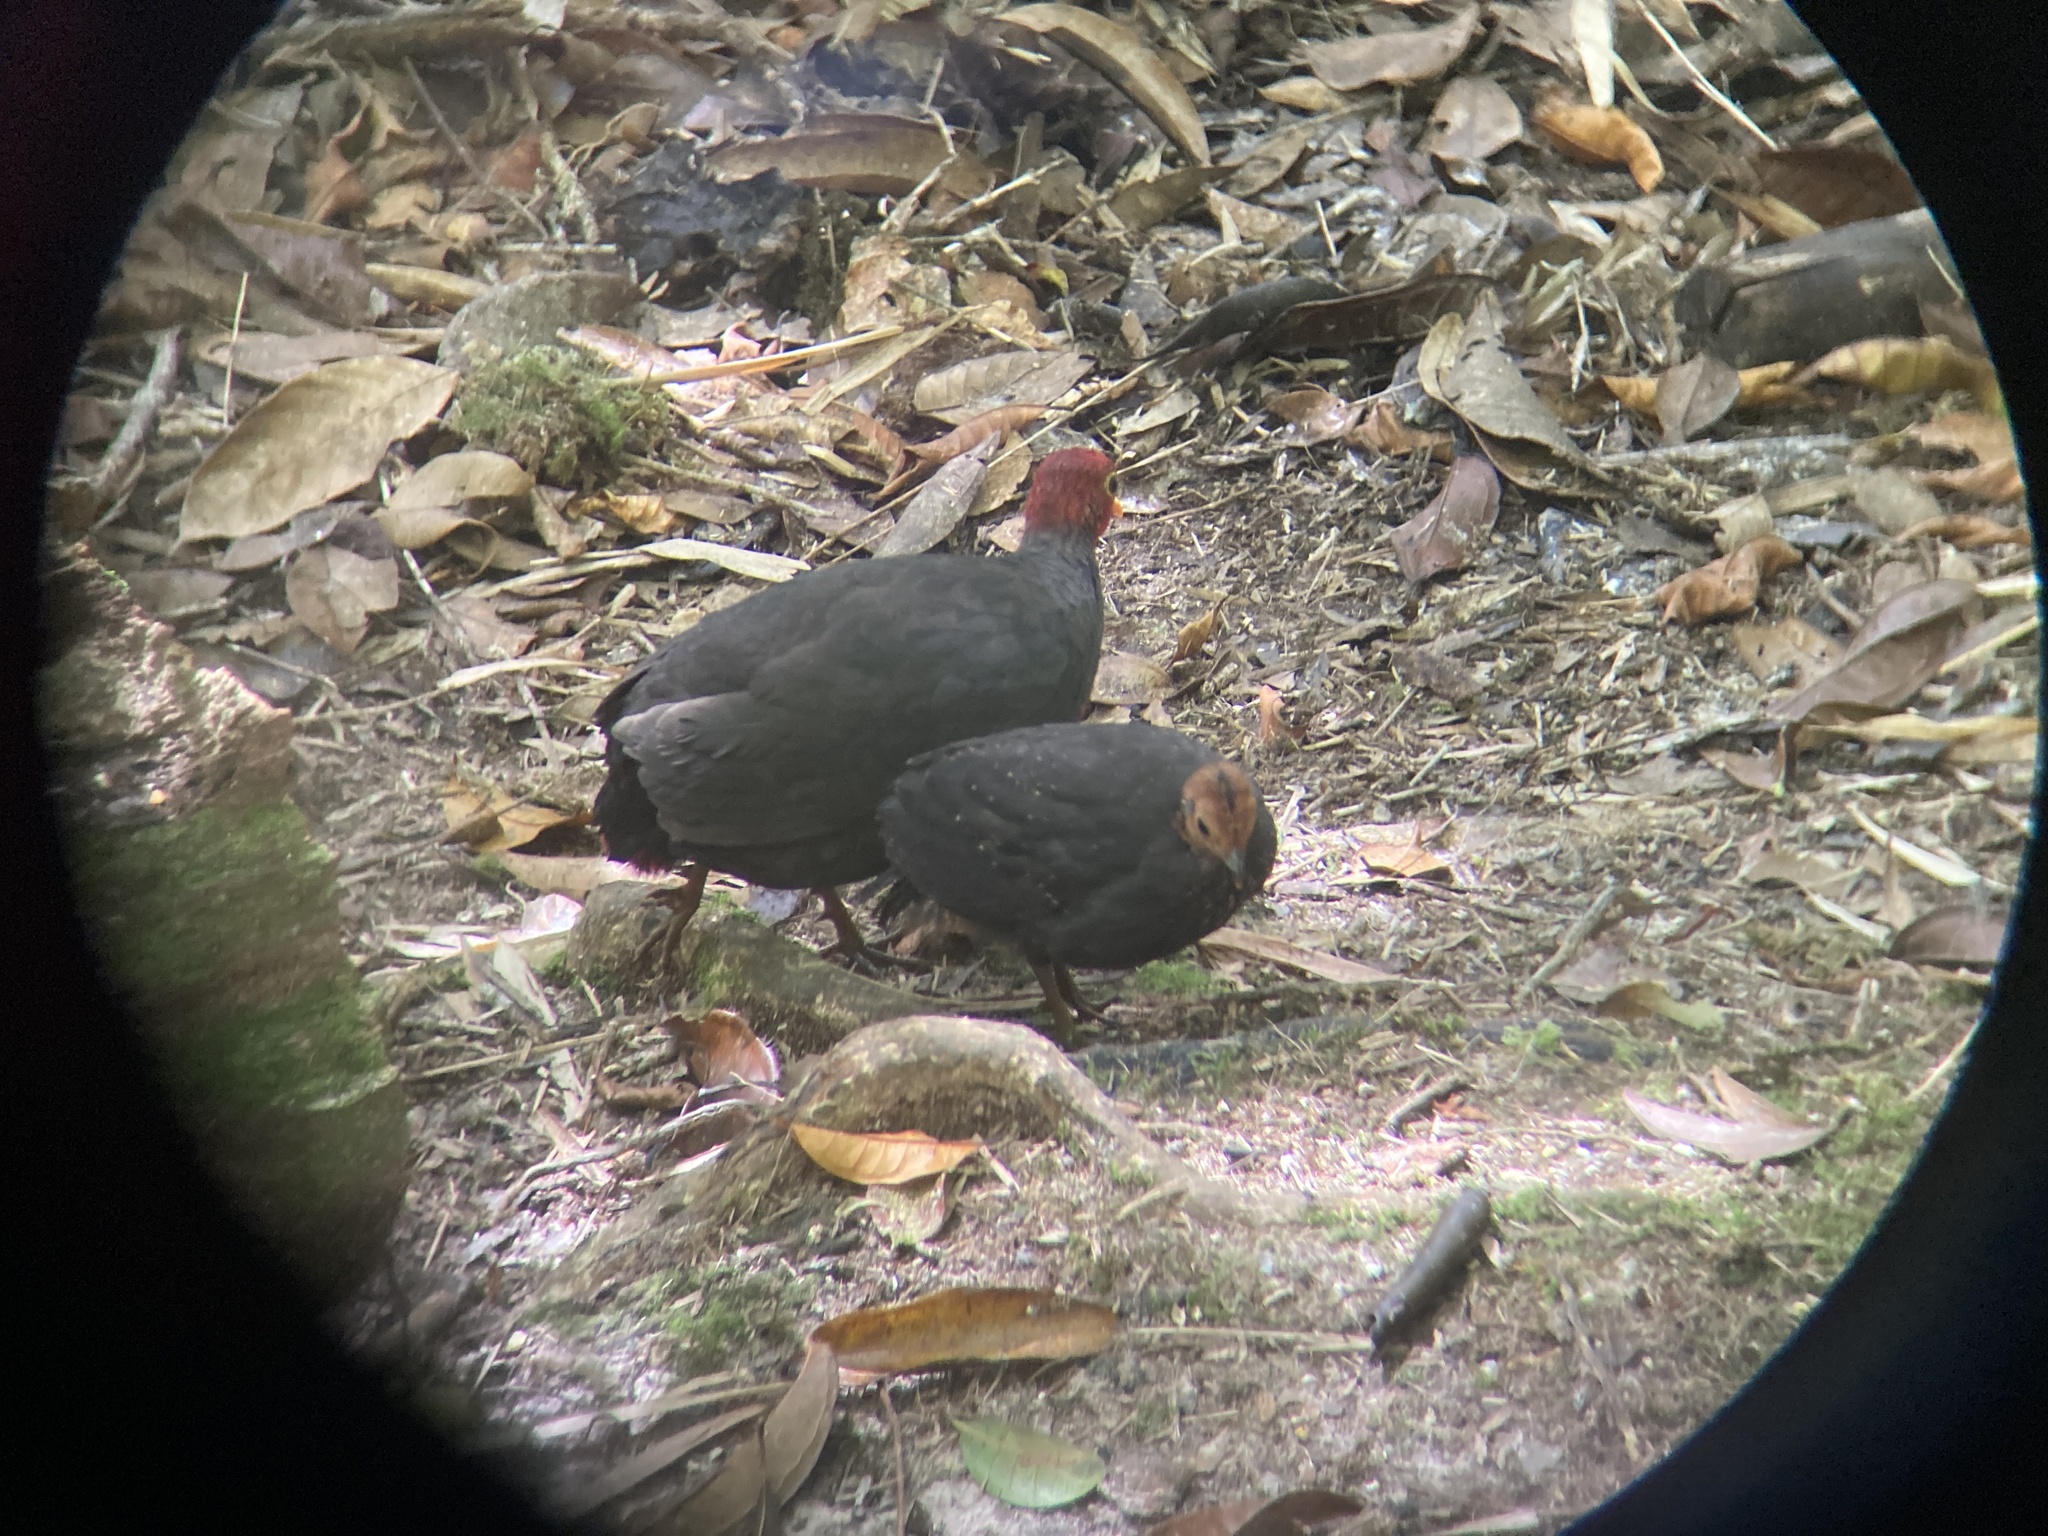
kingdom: Animalia
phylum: Chordata
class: Aves
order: Galliformes
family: Phasianidae
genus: Haematortyx
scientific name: Haematortyx sanguiniceps
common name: Crimson-headed partridge
